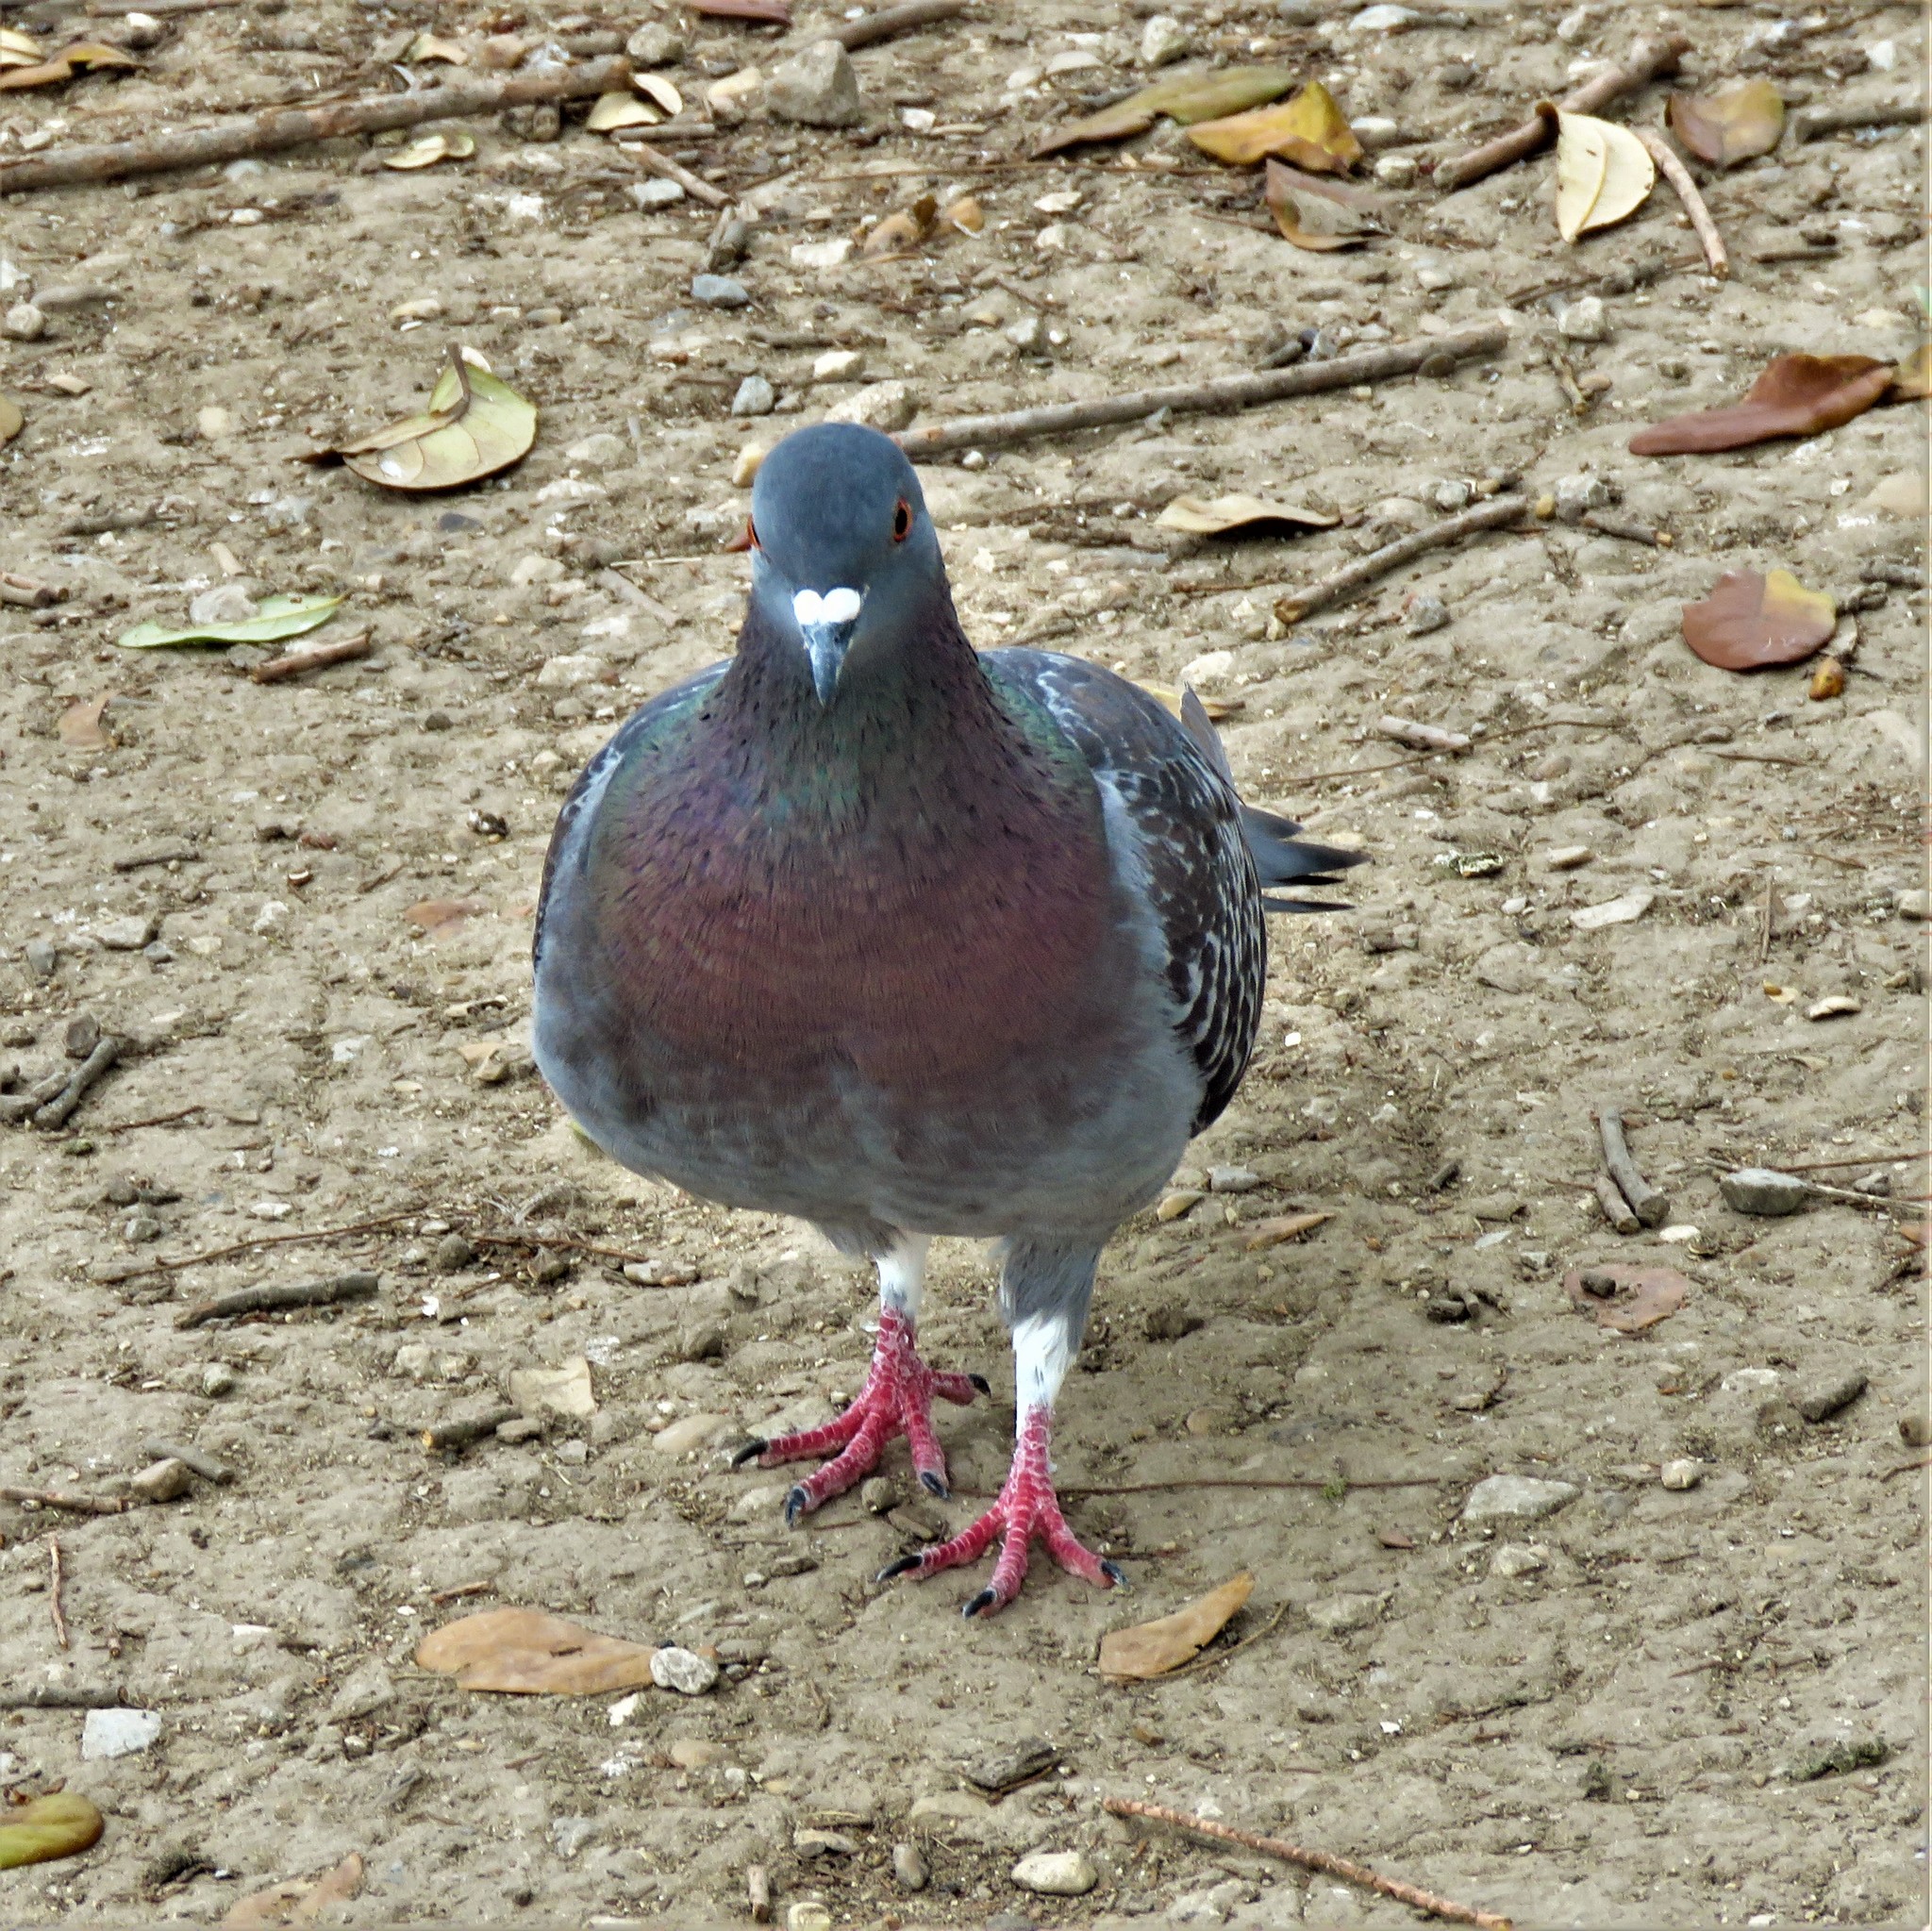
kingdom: Animalia
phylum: Chordata
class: Aves
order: Columbiformes
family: Columbidae
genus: Columba
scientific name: Columba livia
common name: Rock pigeon
